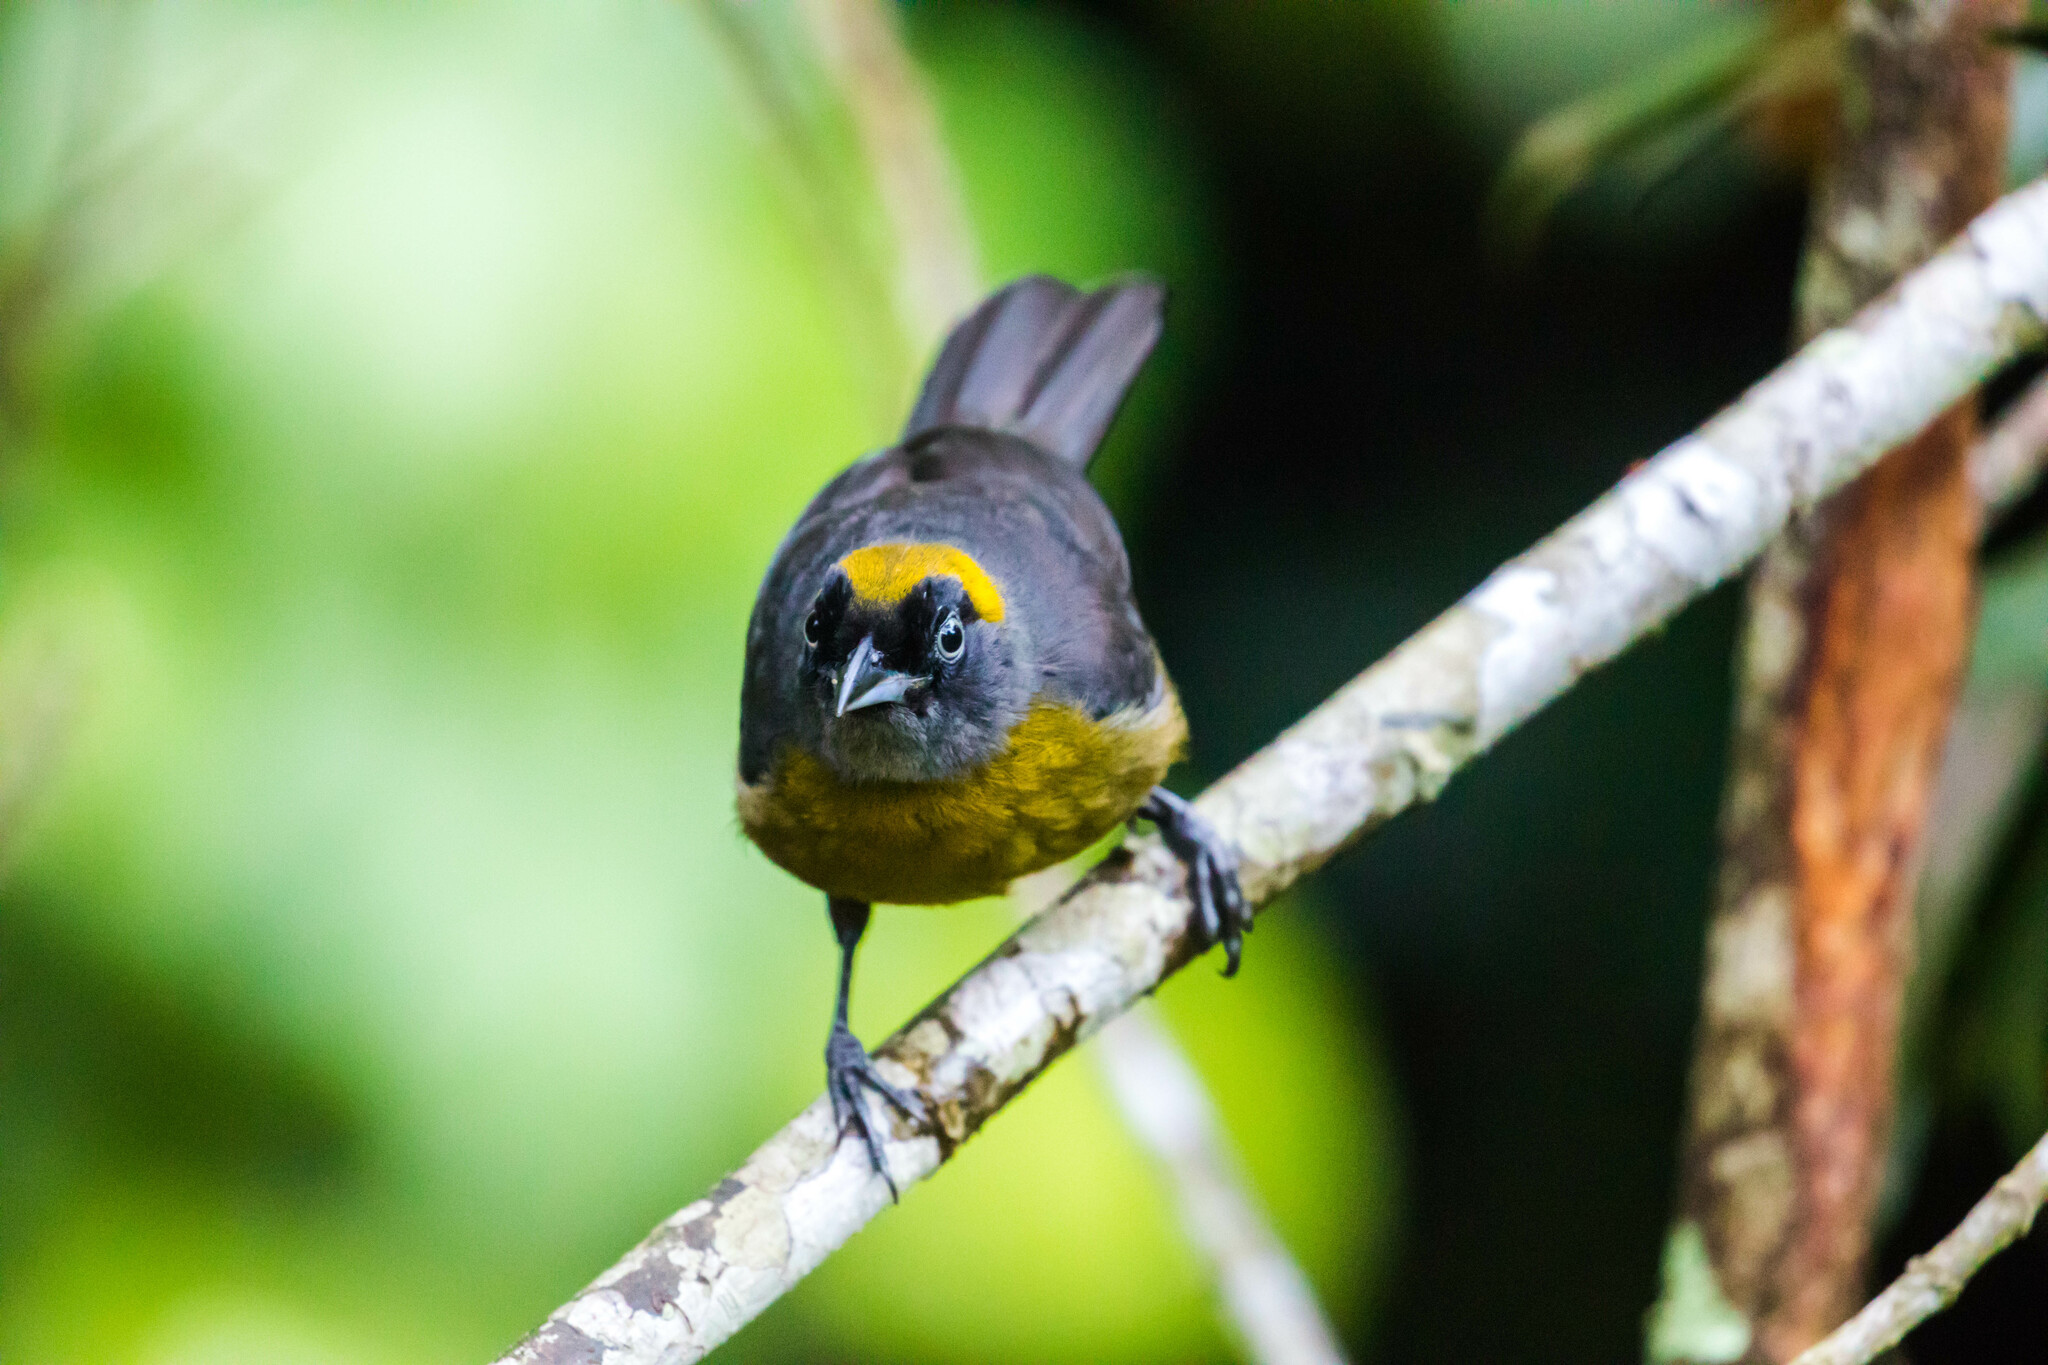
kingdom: Animalia
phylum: Chordata
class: Aves
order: Passeriformes
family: Mitrospingidae
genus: Mitrospingus
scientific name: Mitrospingus cassinii
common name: Dusky-faced tanager
